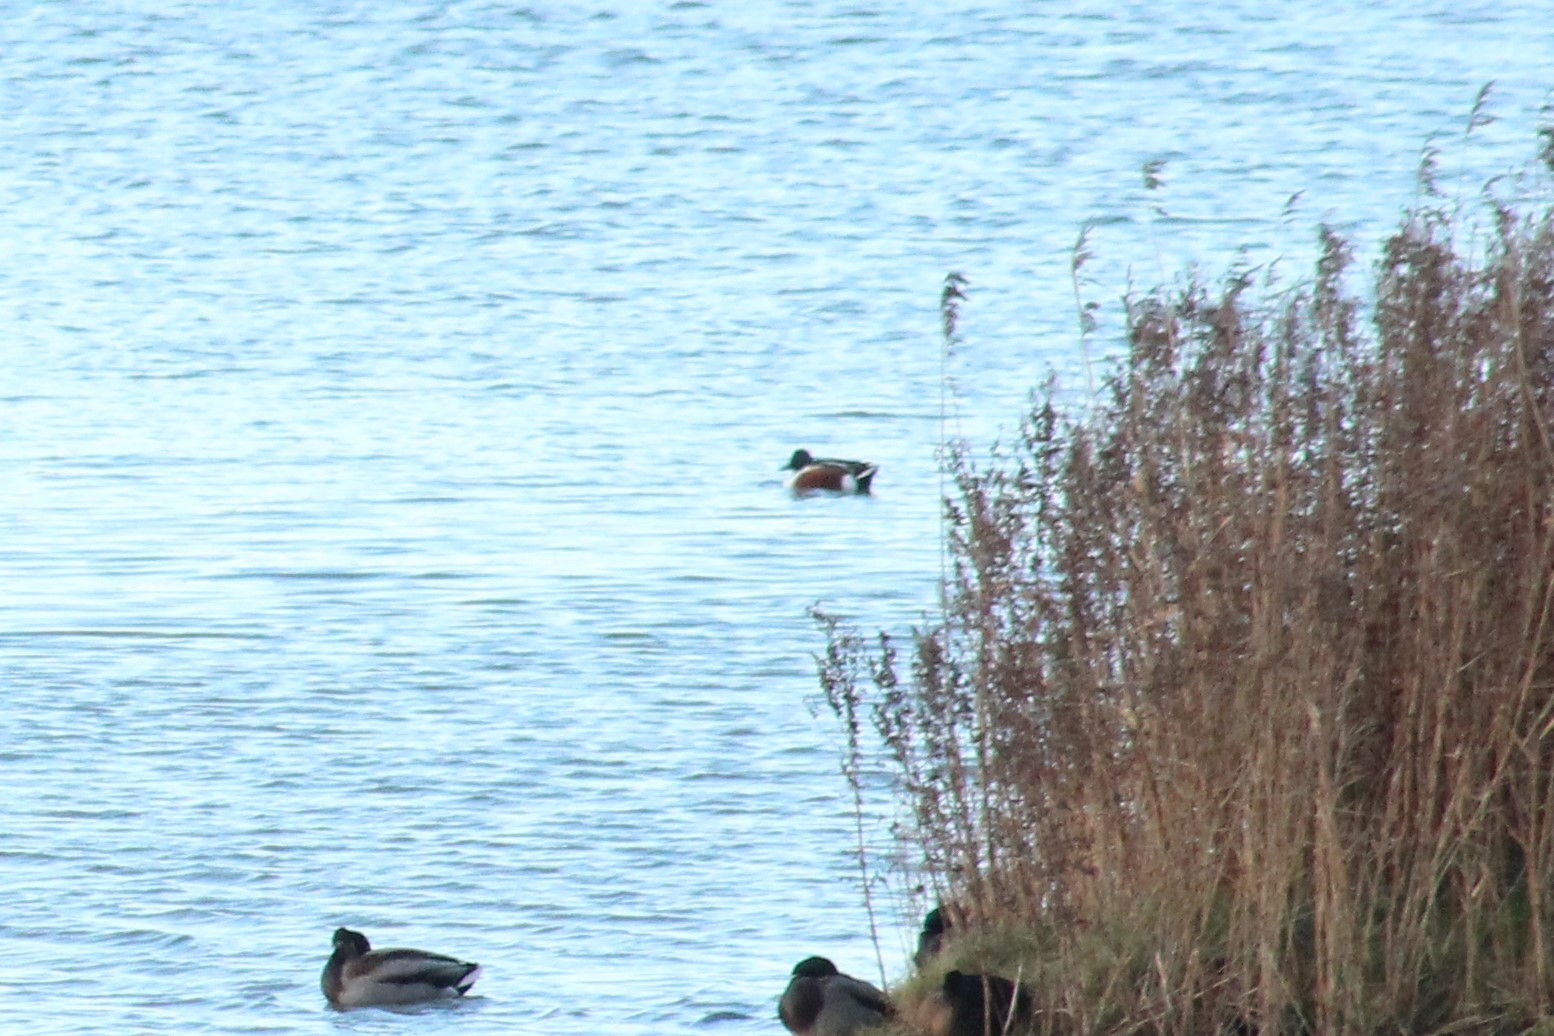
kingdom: Animalia
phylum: Chordata
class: Aves
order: Anseriformes
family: Anatidae
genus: Spatula
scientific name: Spatula clypeata
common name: Northern shoveler
